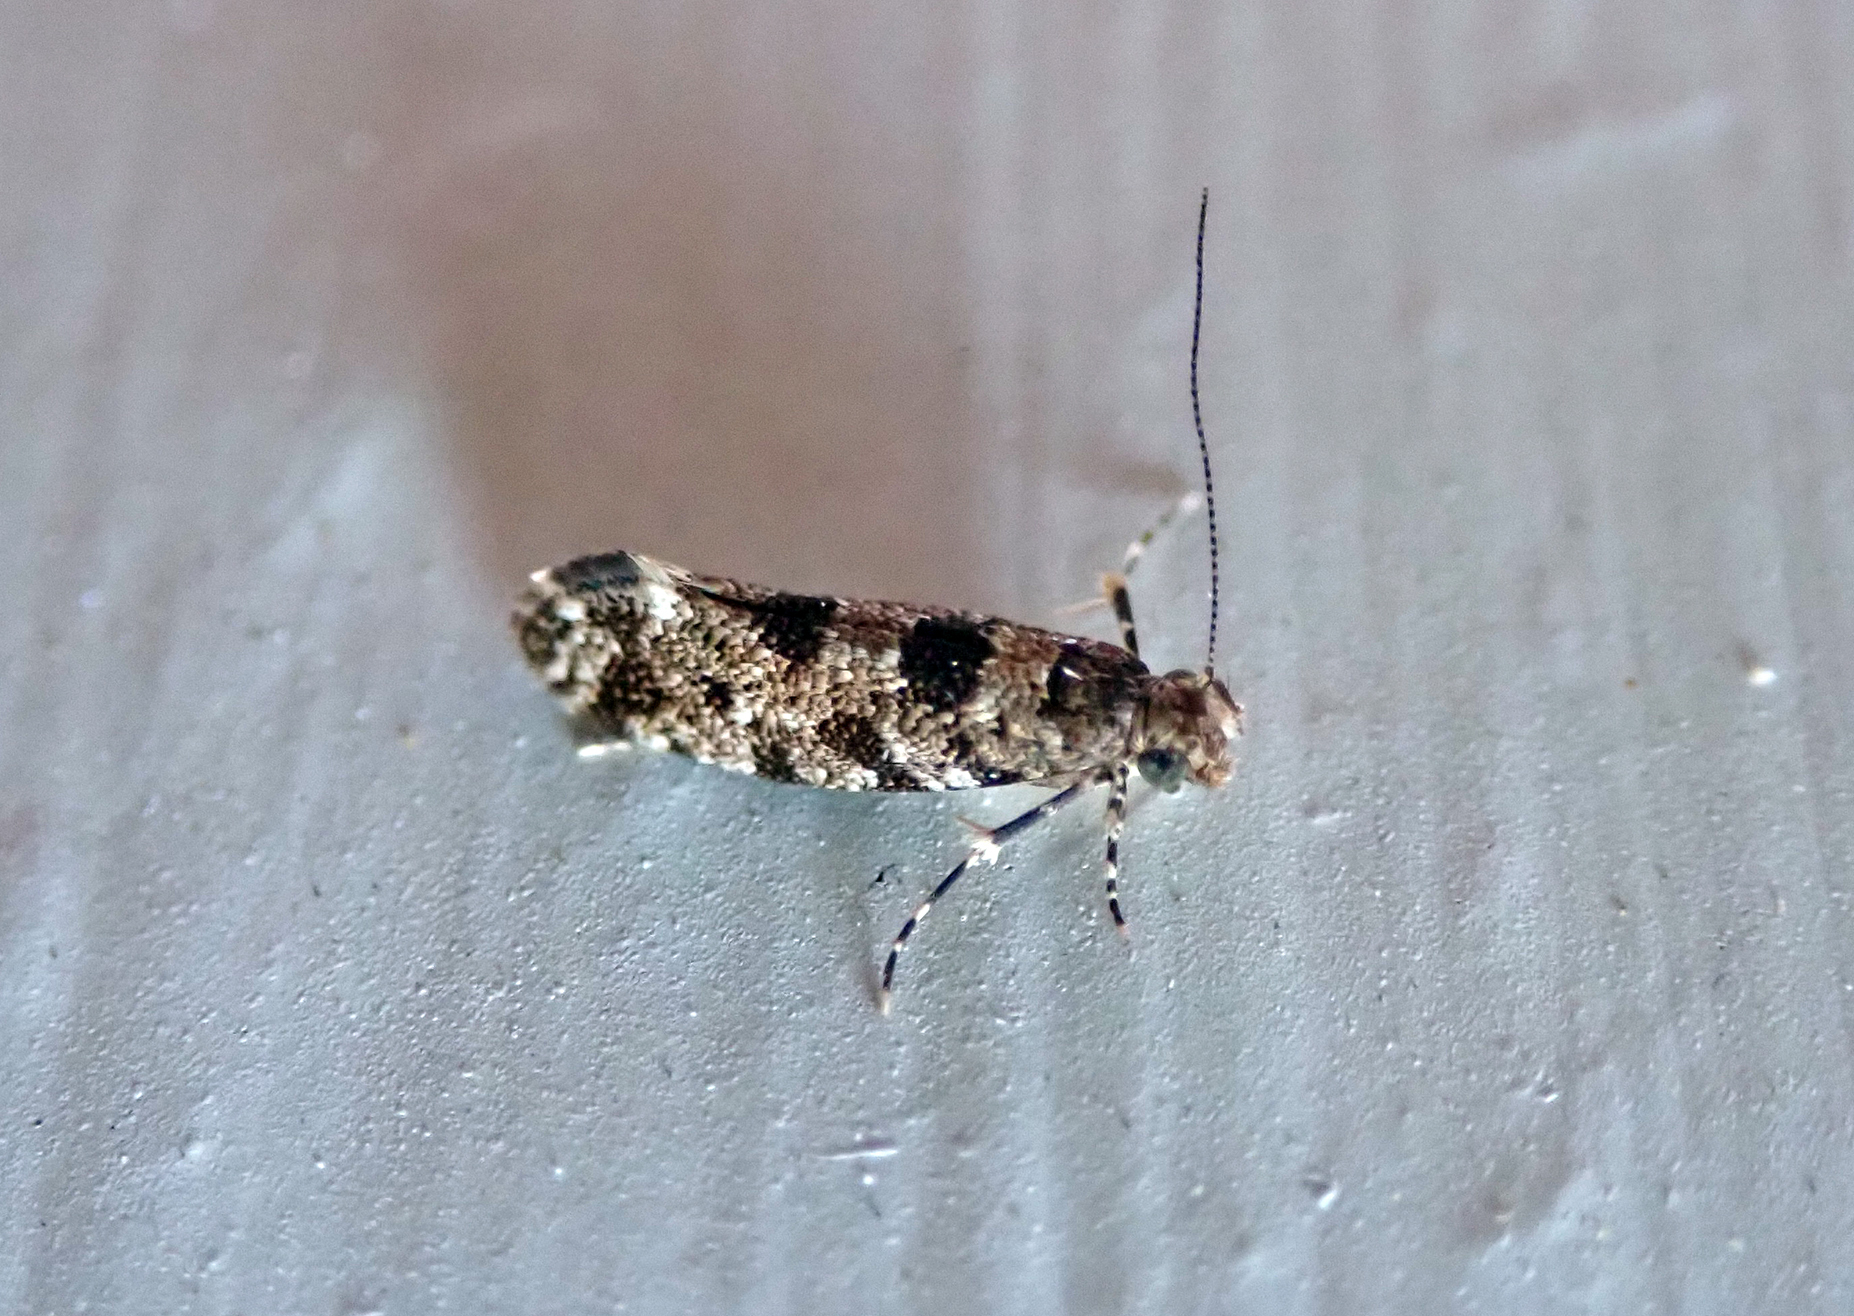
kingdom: Animalia
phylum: Arthropoda
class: Insecta
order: Lepidoptera
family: Tineidae
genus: Parochmastis
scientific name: Parochmastis hilderi
